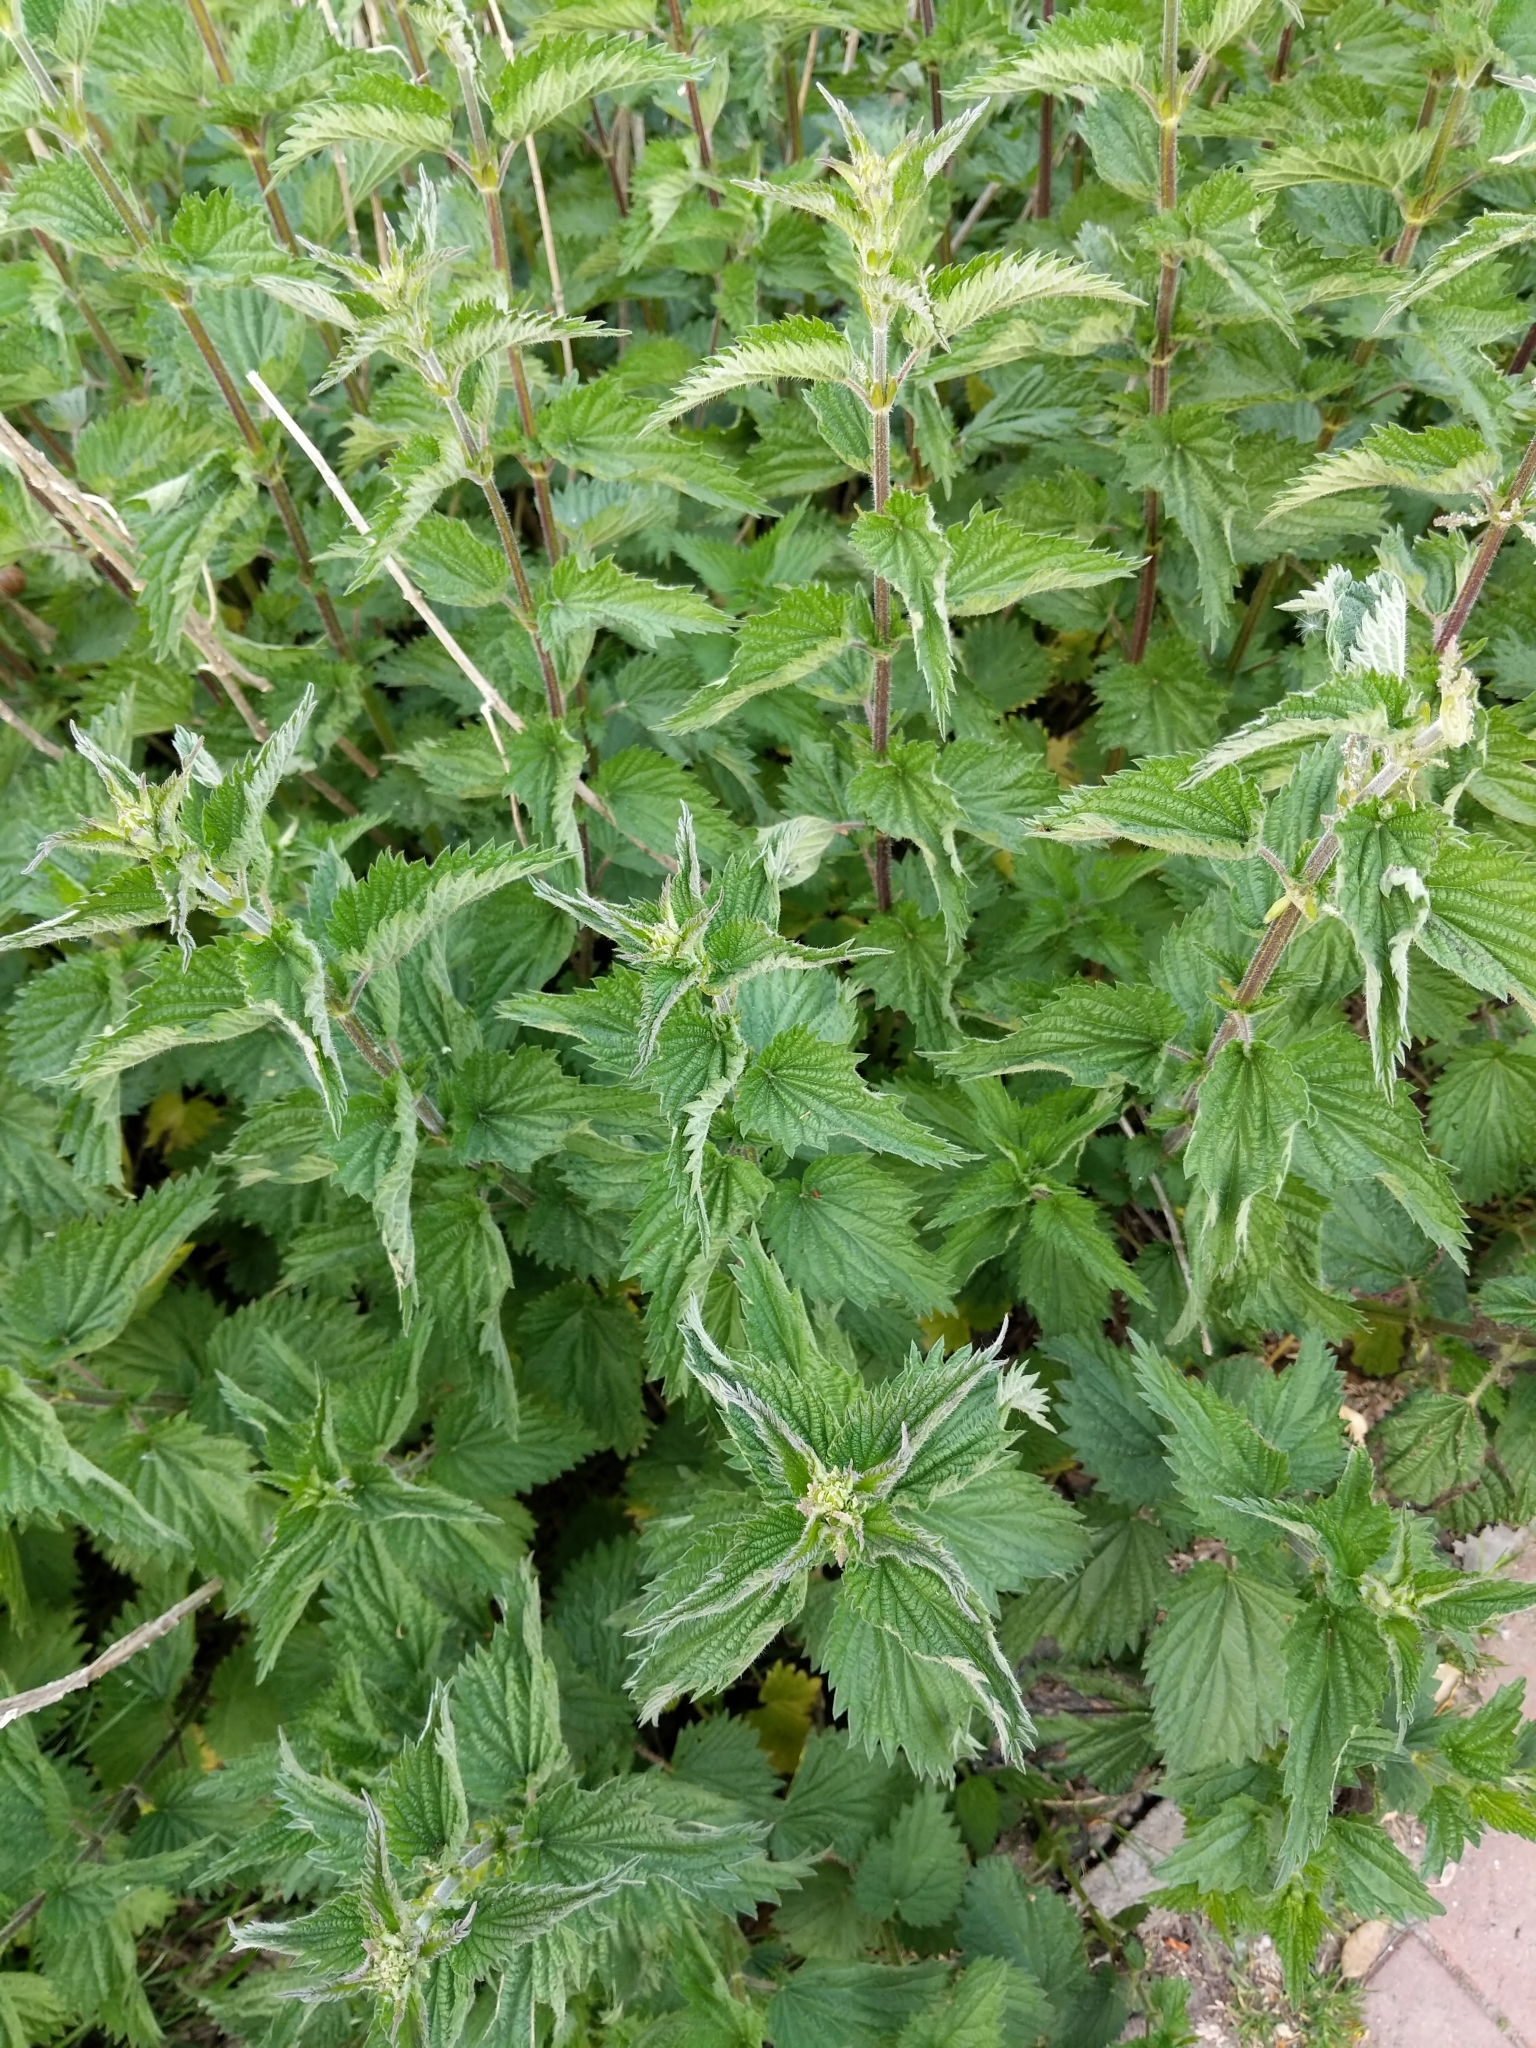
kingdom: Plantae
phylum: Tracheophyta
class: Magnoliopsida
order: Rosales
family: Urticaceae
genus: Urtica
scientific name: Urtica dioica
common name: Common nettle
